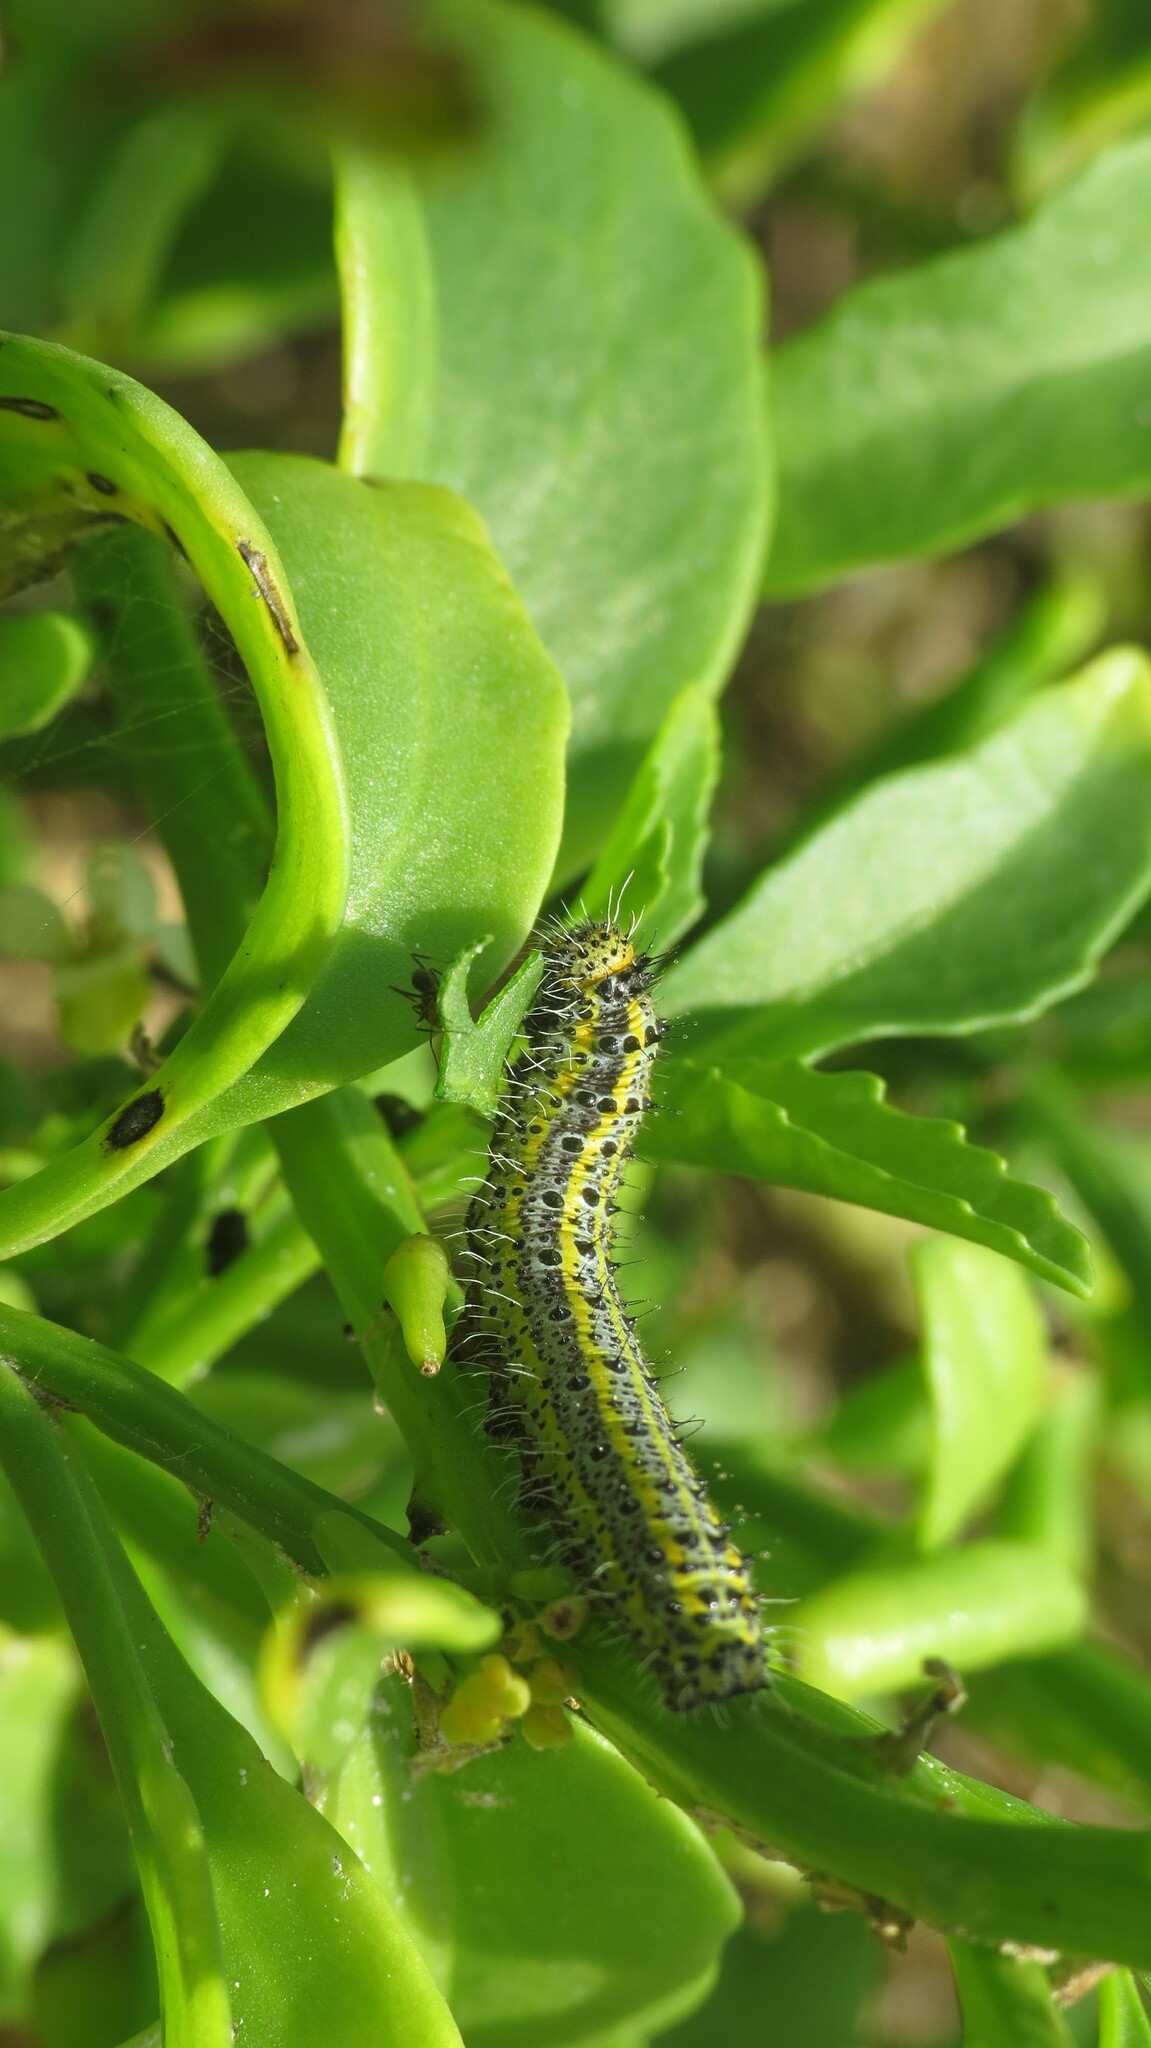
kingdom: Animalia
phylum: Arthropoda
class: Insecta
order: Lepidoptera
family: Pieridae
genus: Ascia
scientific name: Ascia monuste
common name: Great southern white
